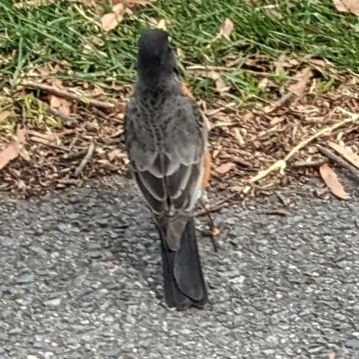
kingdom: Animalia
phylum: Chordata
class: Aves
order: Passeriformes
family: Turdidae
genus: Turdus
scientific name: Turdus migratorius
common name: American robin
